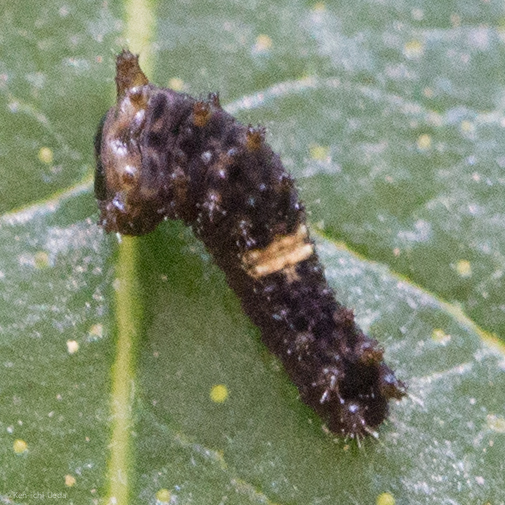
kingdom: Animalia
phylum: Arthropoda
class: Insecta
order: Lepidoptera
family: Papilionidae
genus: Papilio
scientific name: Papilio multicaudata
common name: Two-tailed tiger swallowtail
